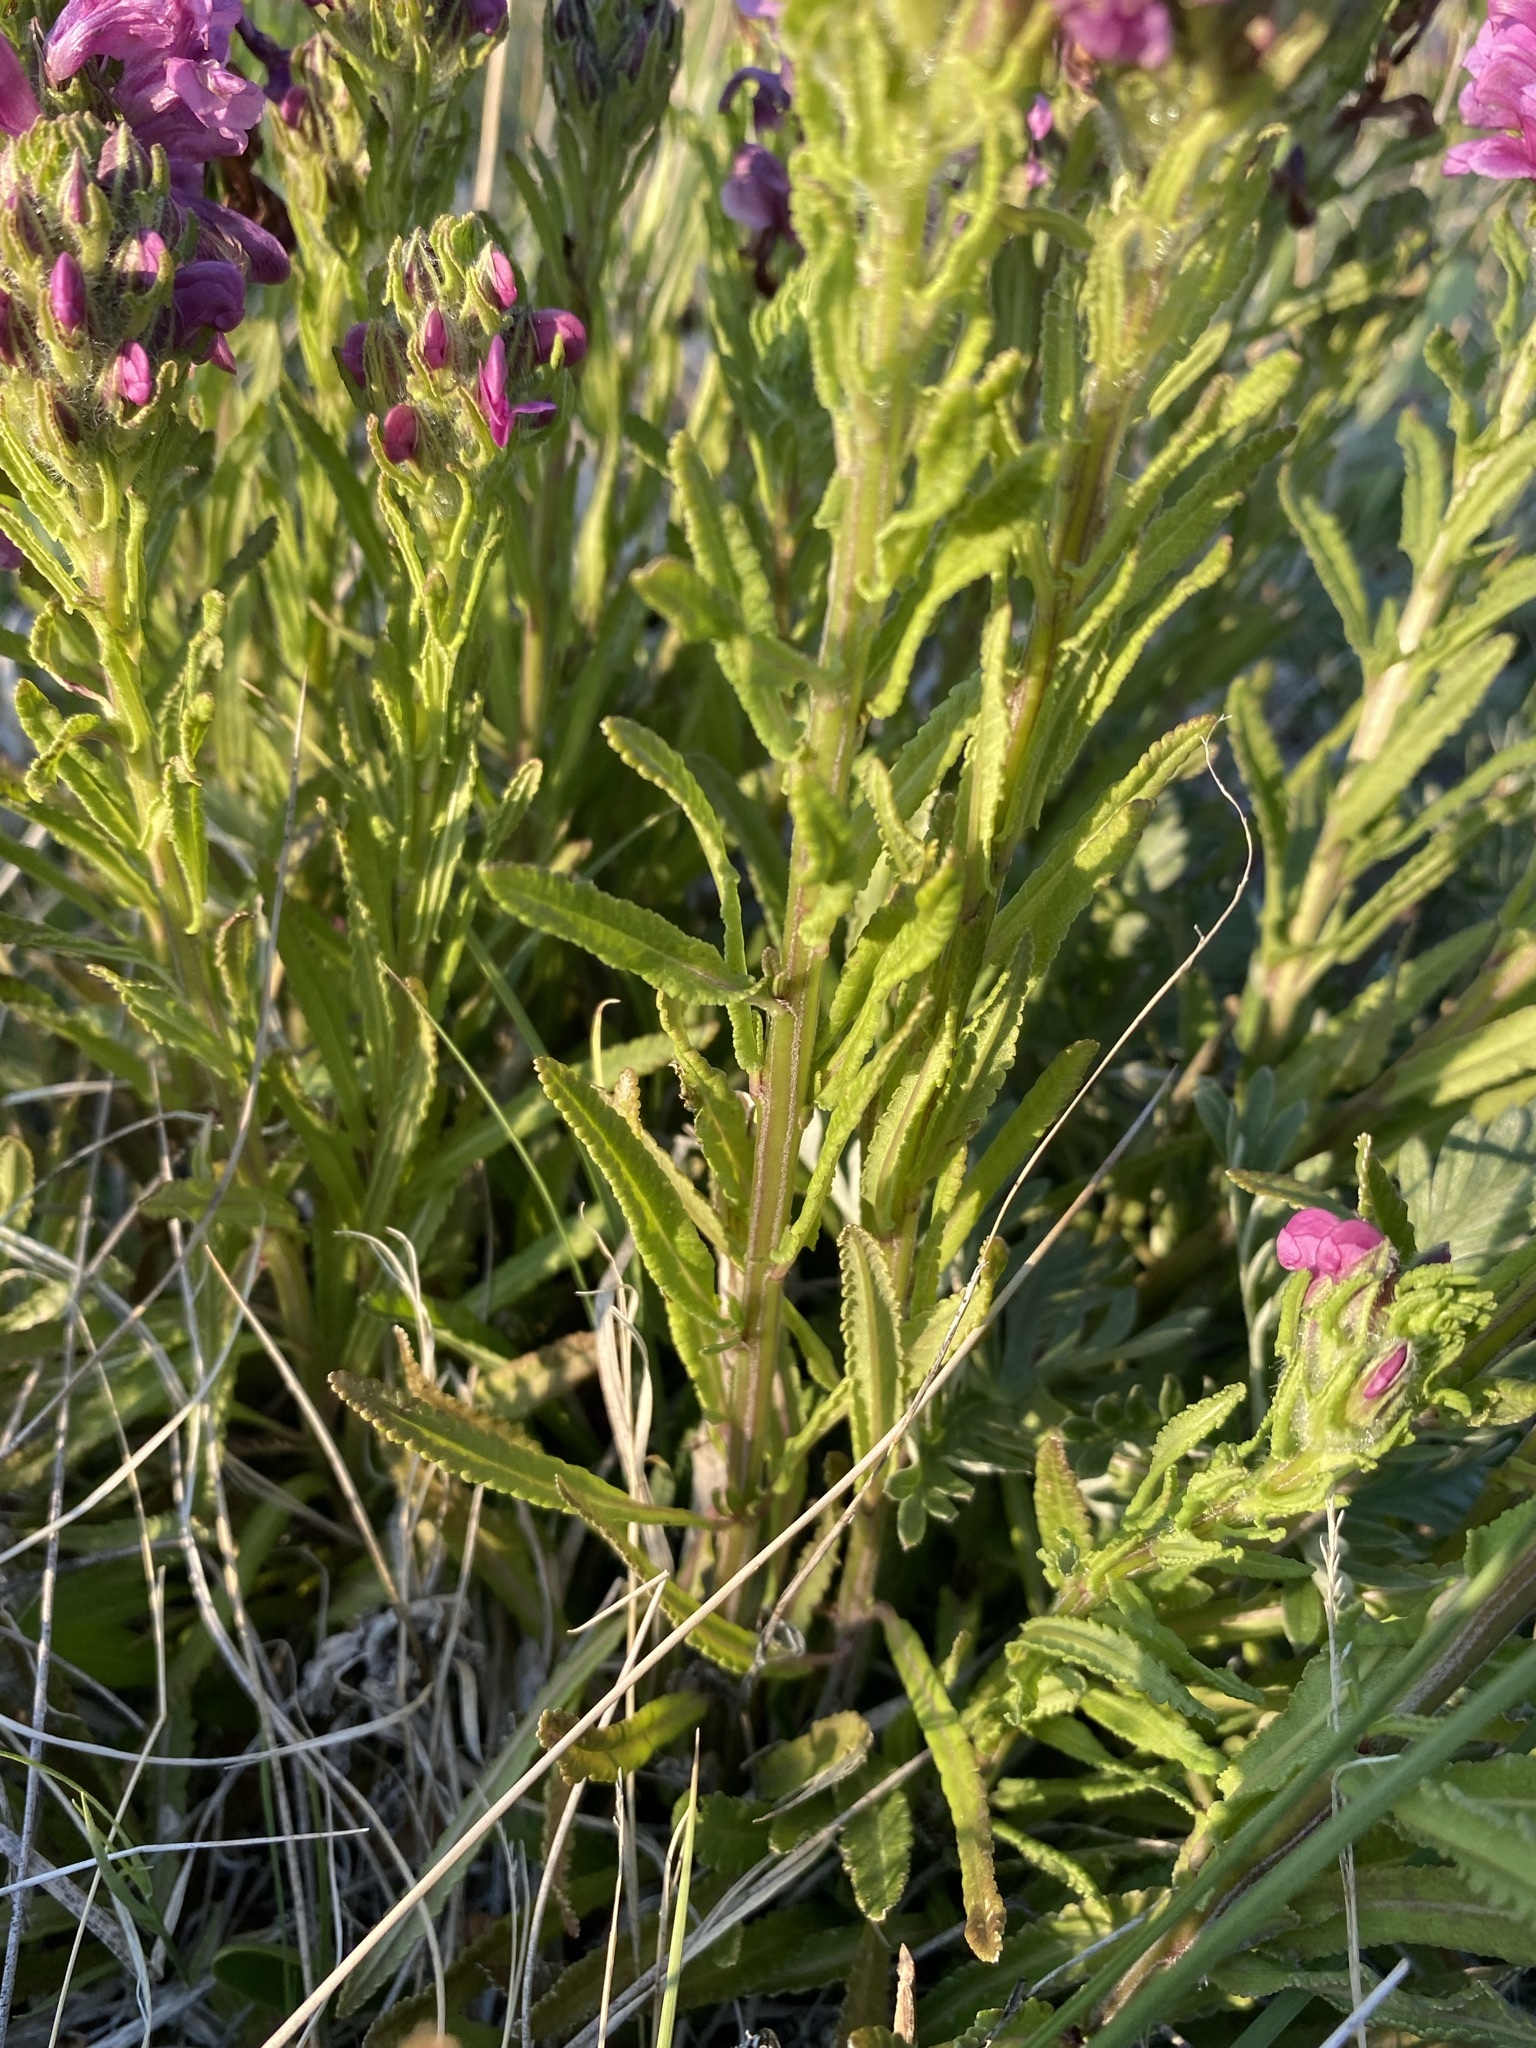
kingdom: Plantae
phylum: Tracheophyta
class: Magnoliopsida
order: Lamiales
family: Orobanchaceae
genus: Pedicularis
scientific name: Pedicularis crenulata
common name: Meadow lousewort
